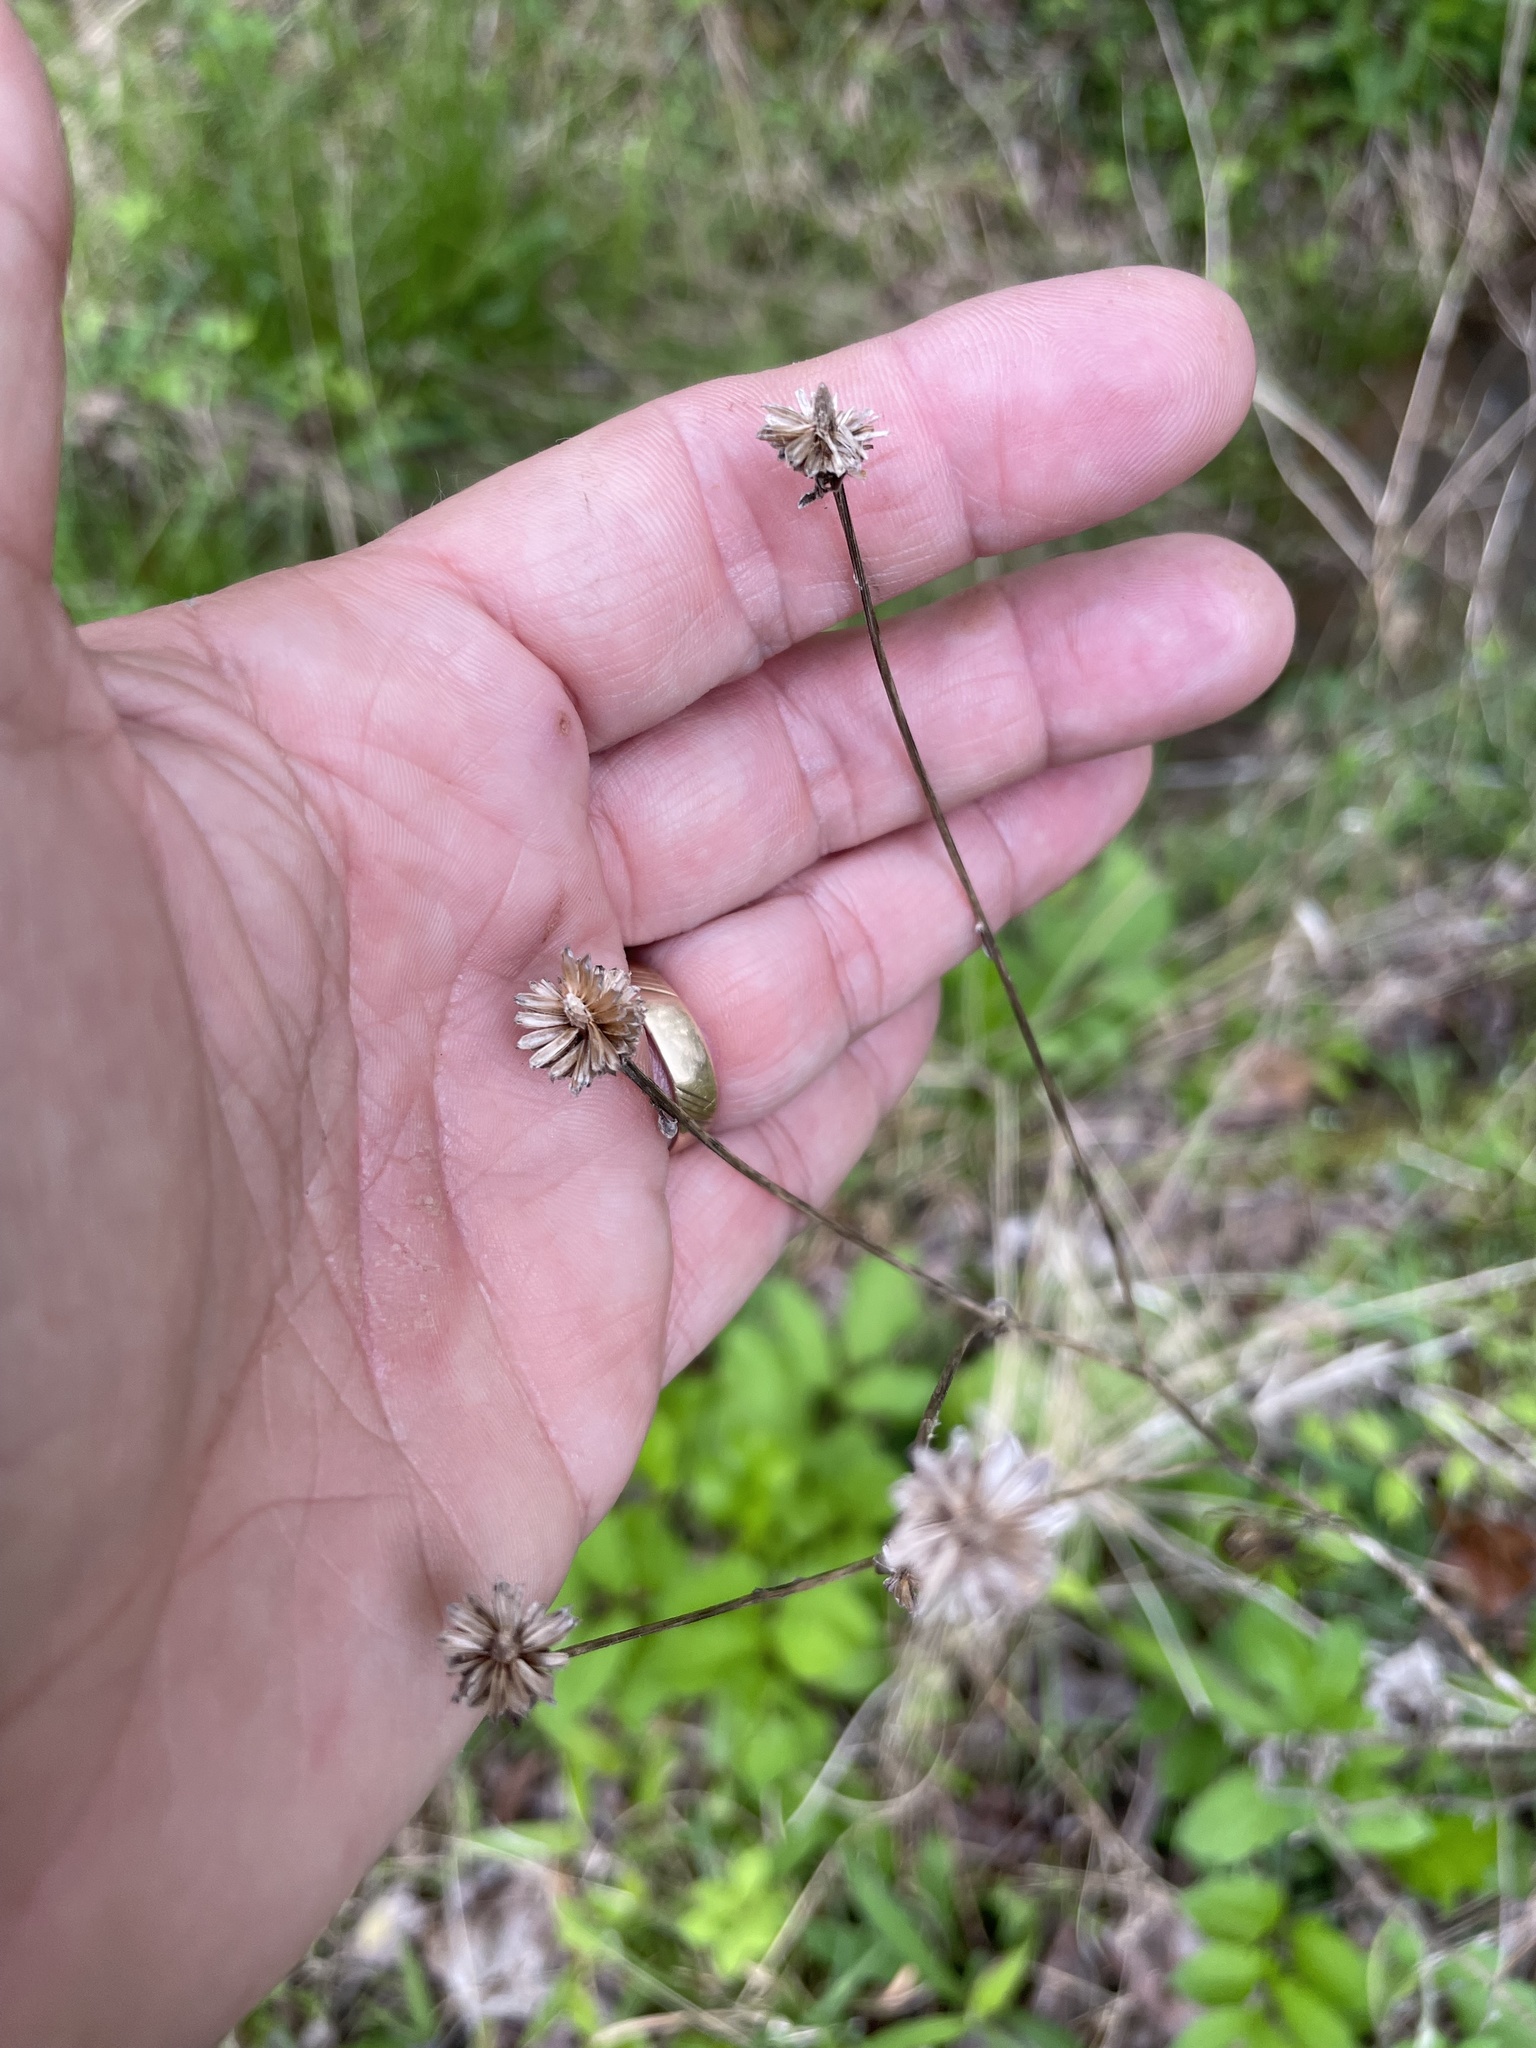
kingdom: Plantae
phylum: Tracheophyta
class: Magnoliopsida
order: Asterales
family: Asteraceae
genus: Rudbeckia
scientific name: Rudbeckia laciniata
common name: Coneflower
